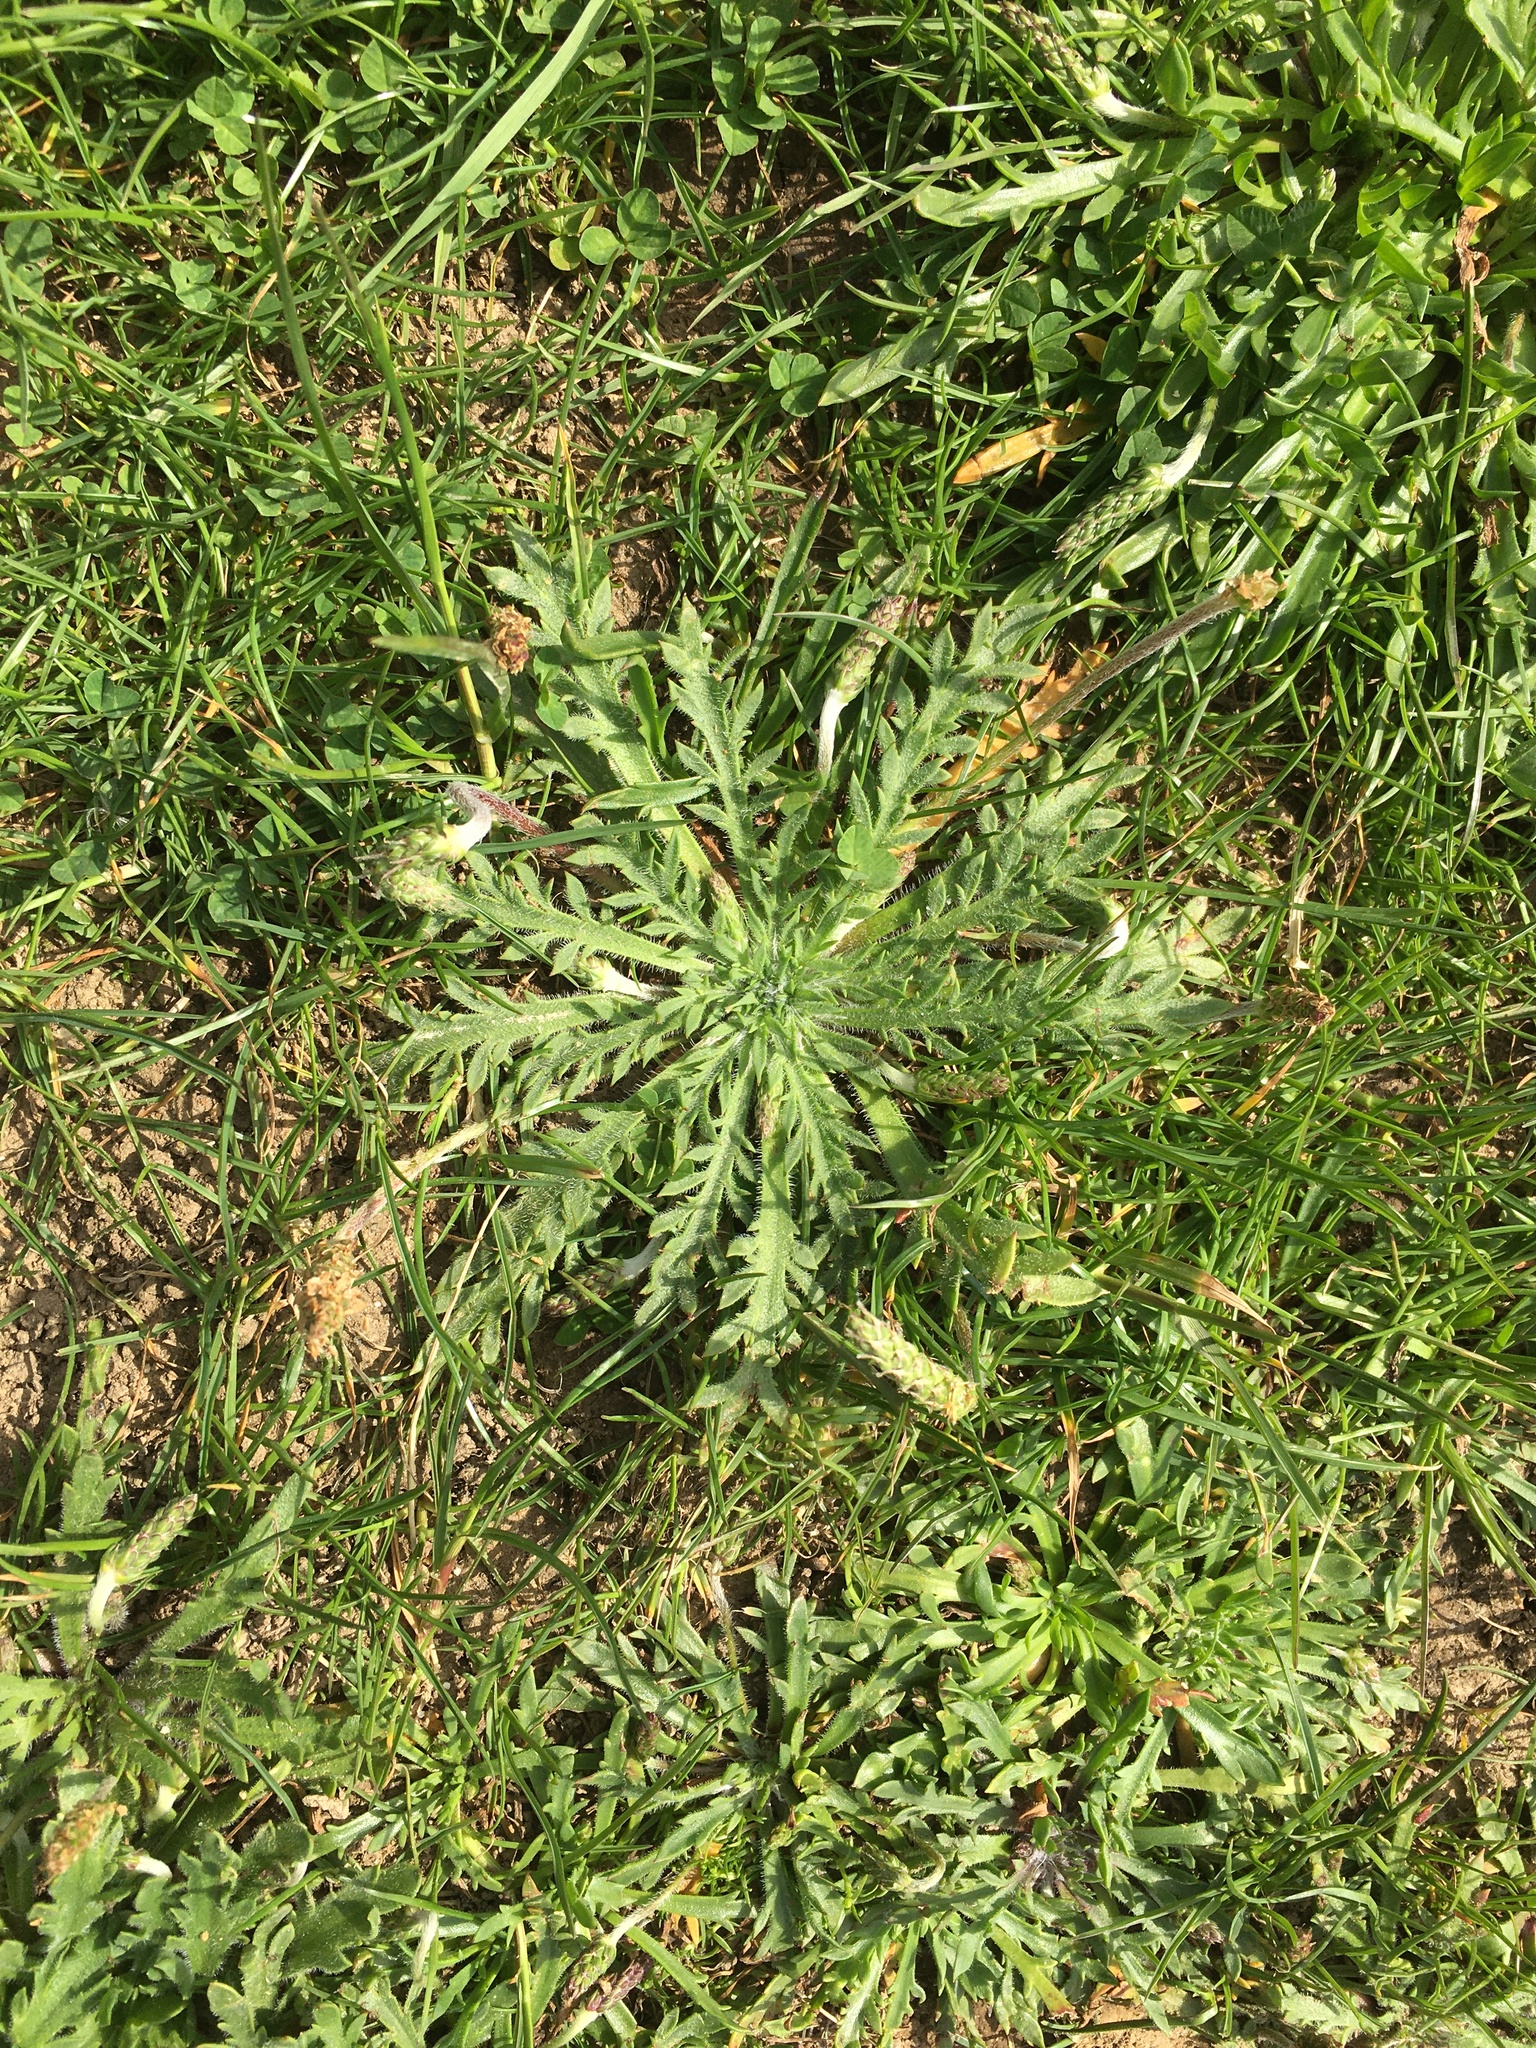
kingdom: Plantae
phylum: Tracheophyta
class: Magnoliopsida
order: Lamiales
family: Plantaginaceae
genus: Plantago
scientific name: Plantago coronopus
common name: Buck's-horn plantain
